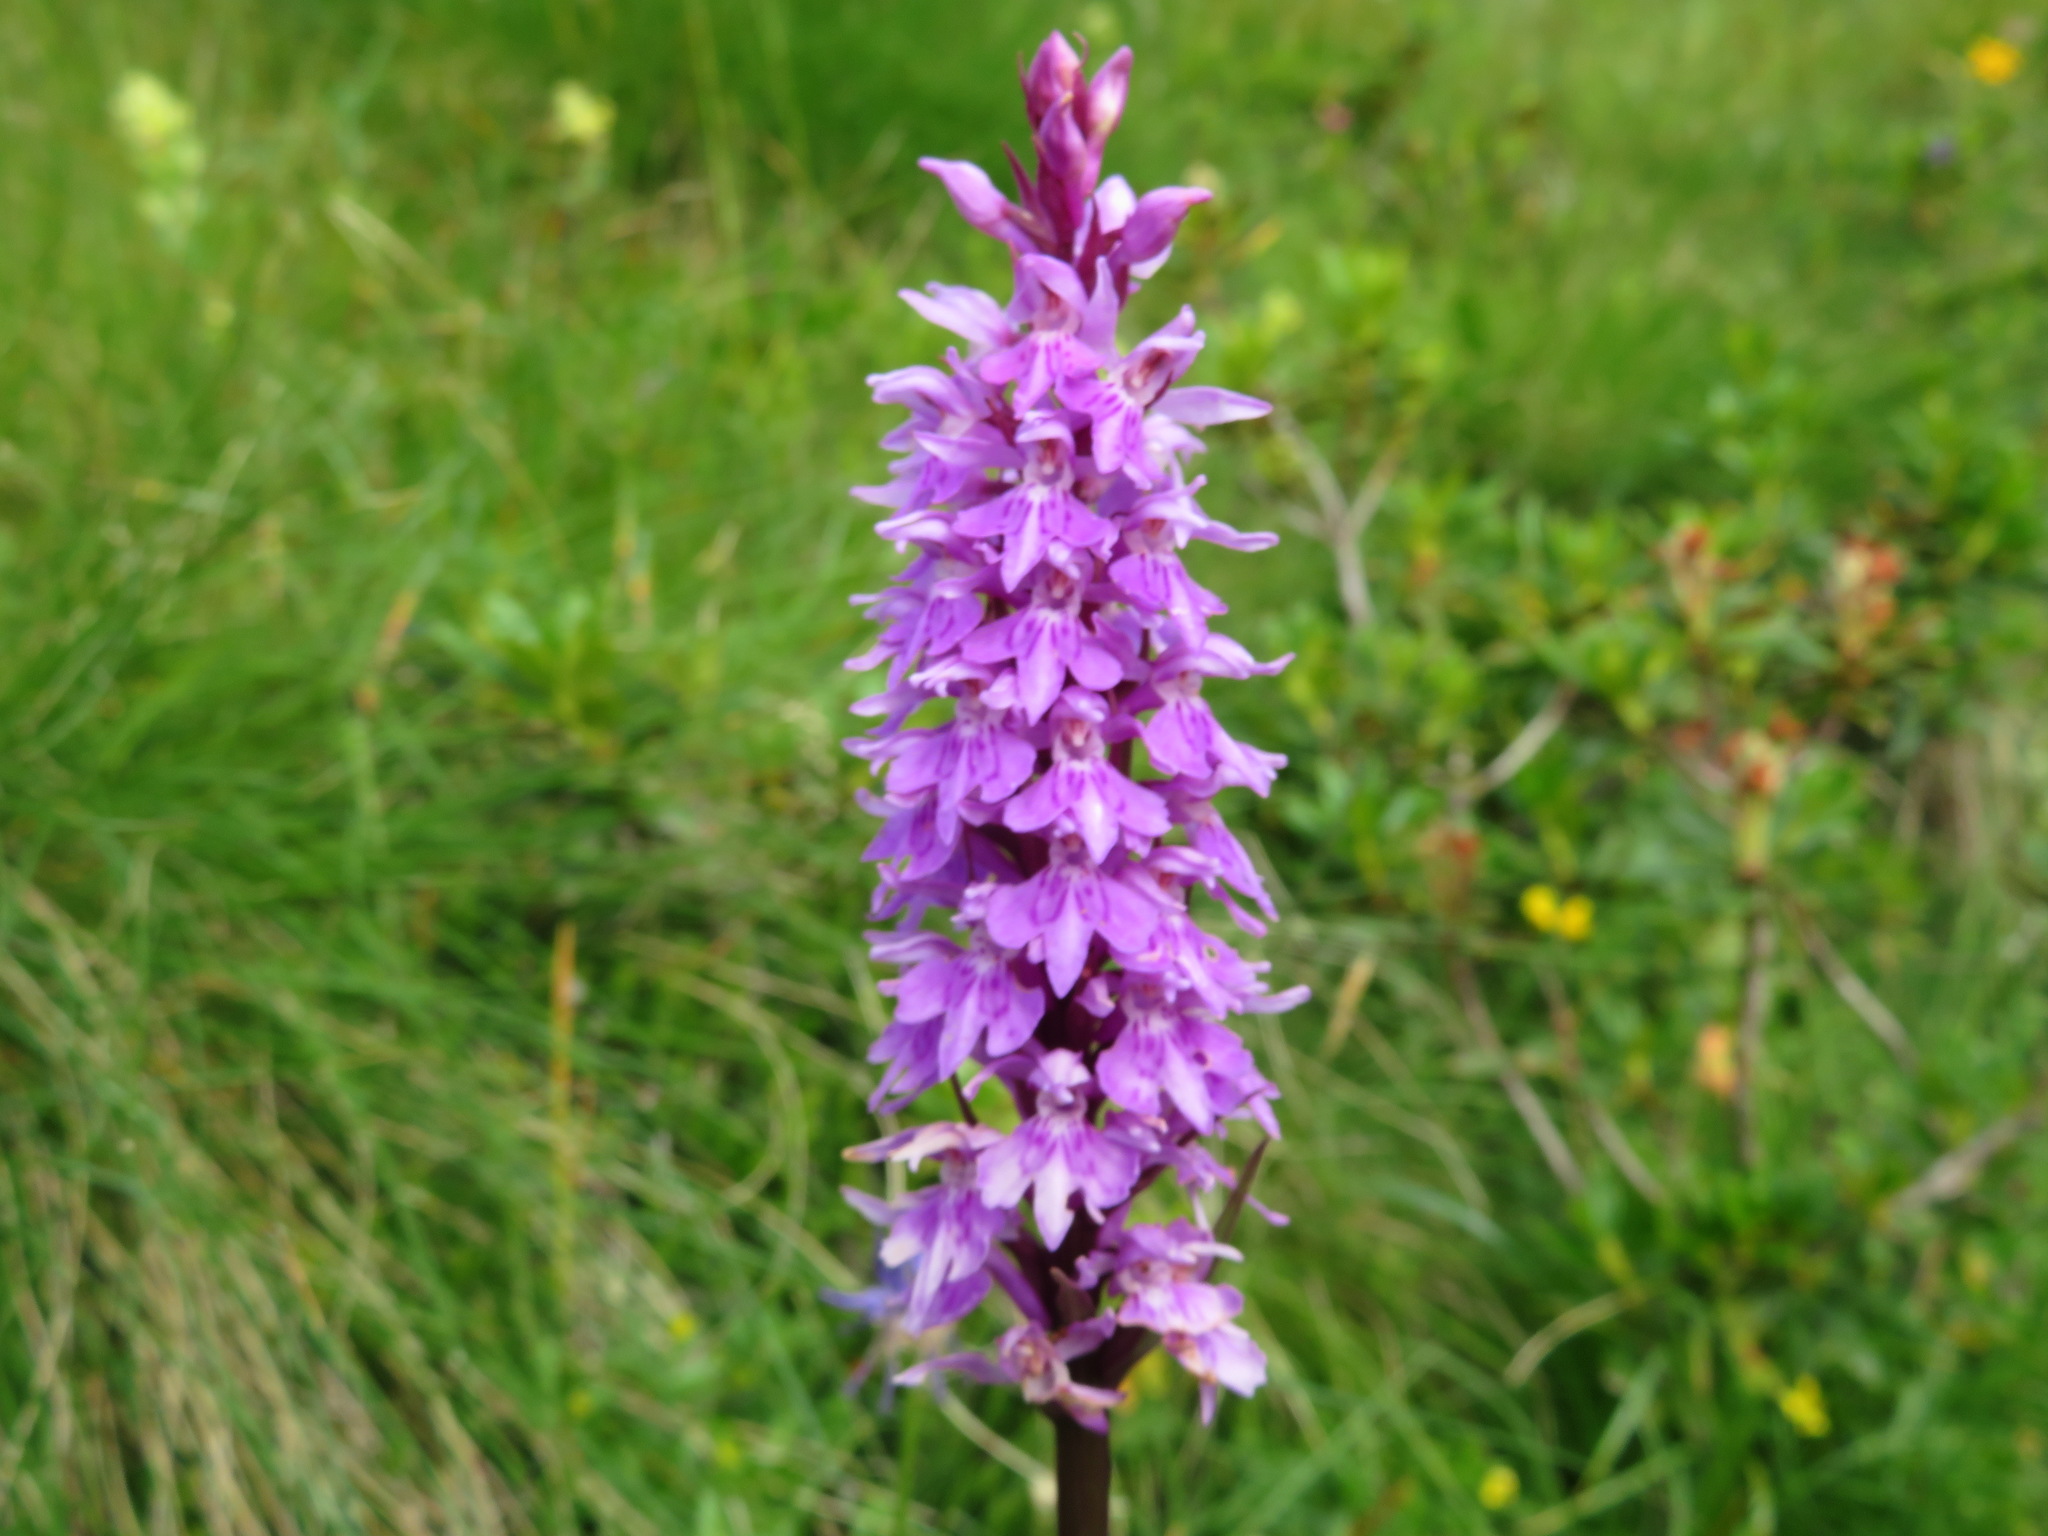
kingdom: Plantae
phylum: Tracheophyta
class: Liliopsida
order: Asparagales
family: Orchidaceae
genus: Dactylorhiza
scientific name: Dactylorhiza maculata
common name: Heath spotted-orchid
